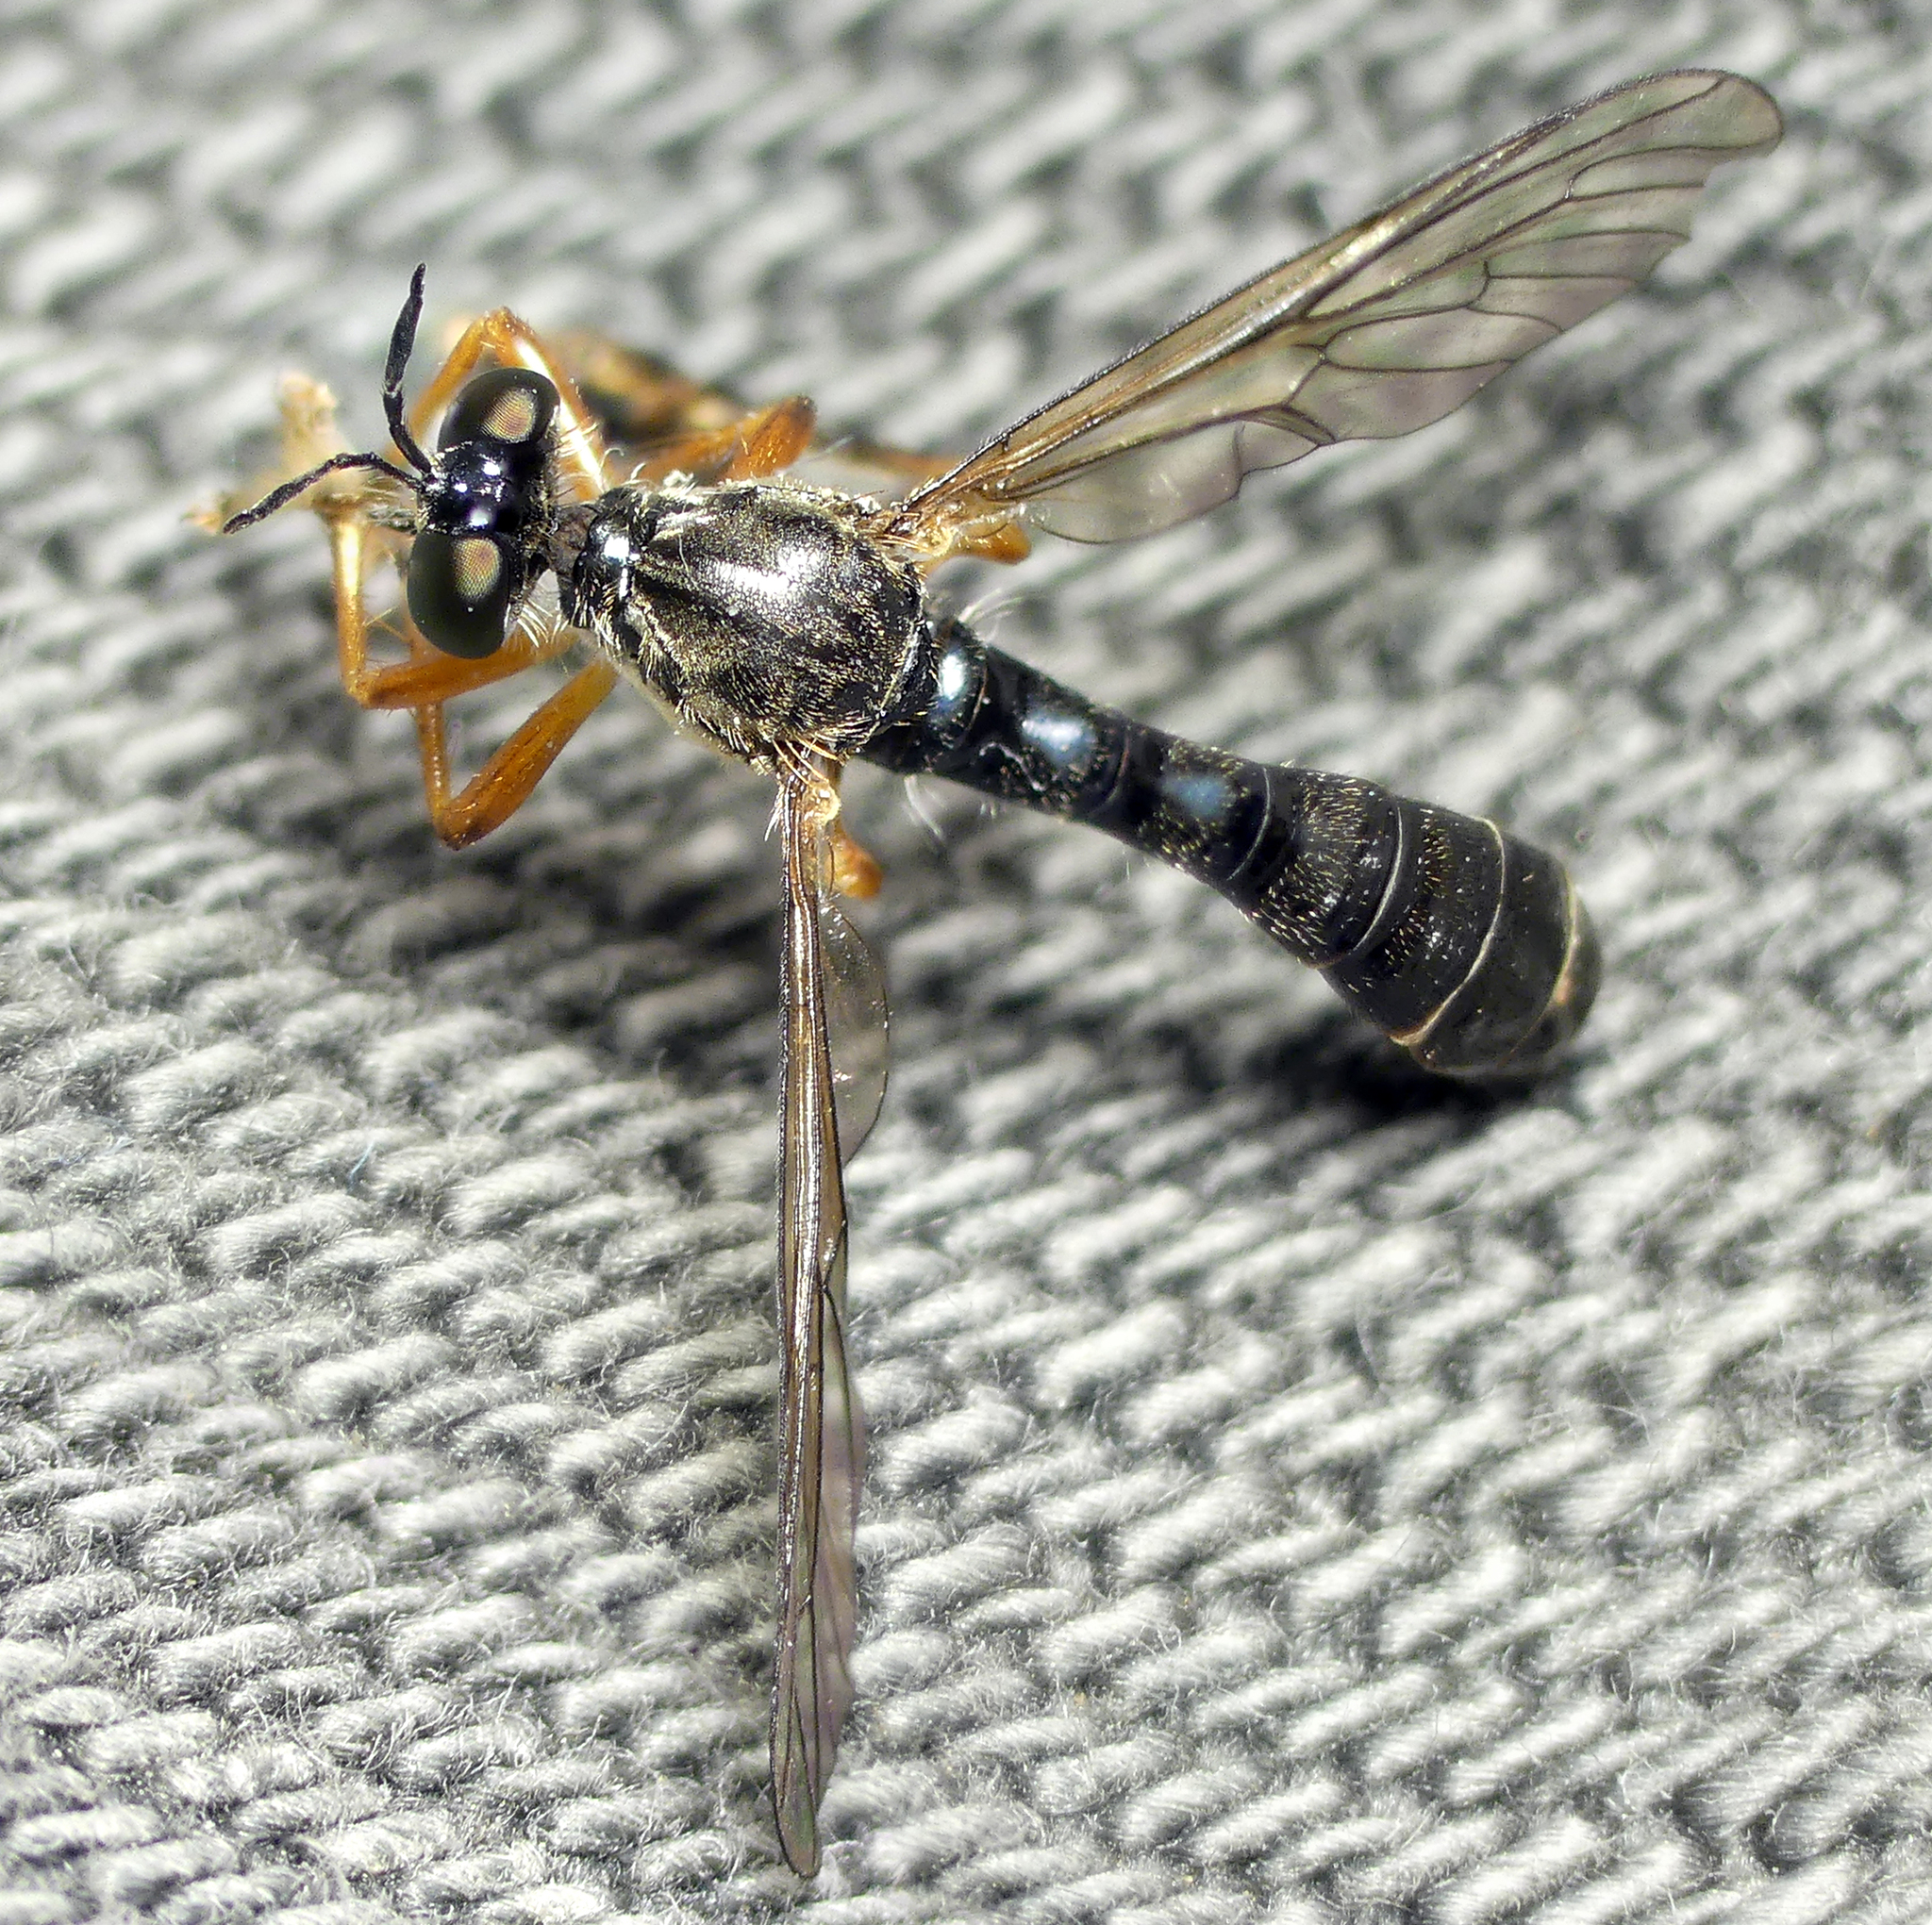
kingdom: Animalia
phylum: Arthropoda
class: Insecta
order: Diptera
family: Asilidae
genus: Dioctria
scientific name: Dioctria hyalipennis
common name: Stripe-legged robberfly
